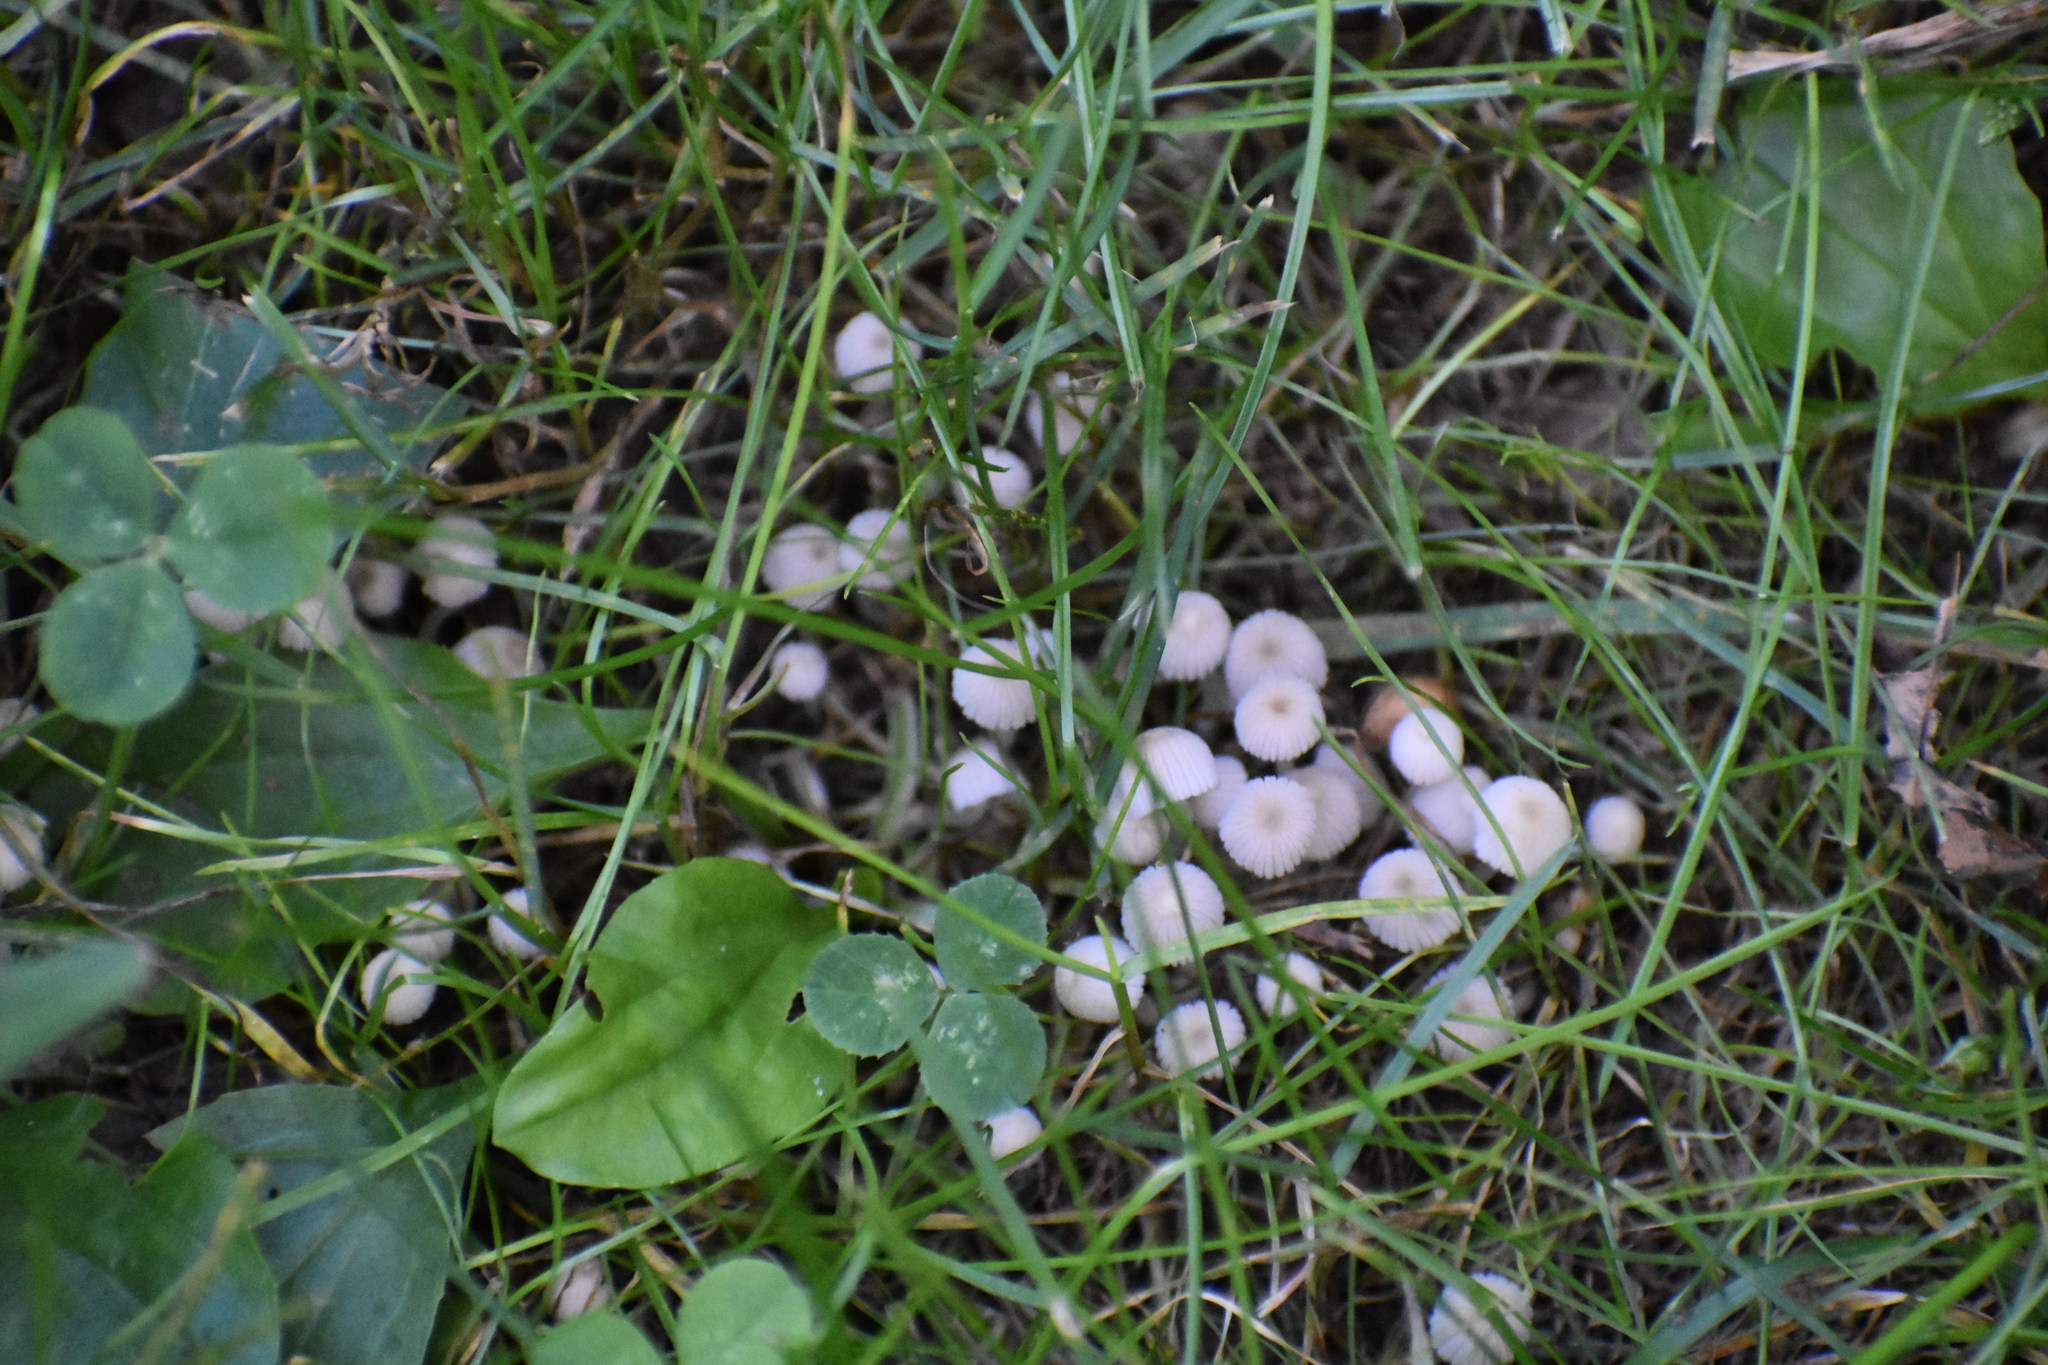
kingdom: Fungi
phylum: Basidiomycota
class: Agaricomycetes
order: Agaricales
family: Psathyrellaceae
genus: Coprinellus
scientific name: Coprinellus disseminatus
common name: Fairies' bonnets
